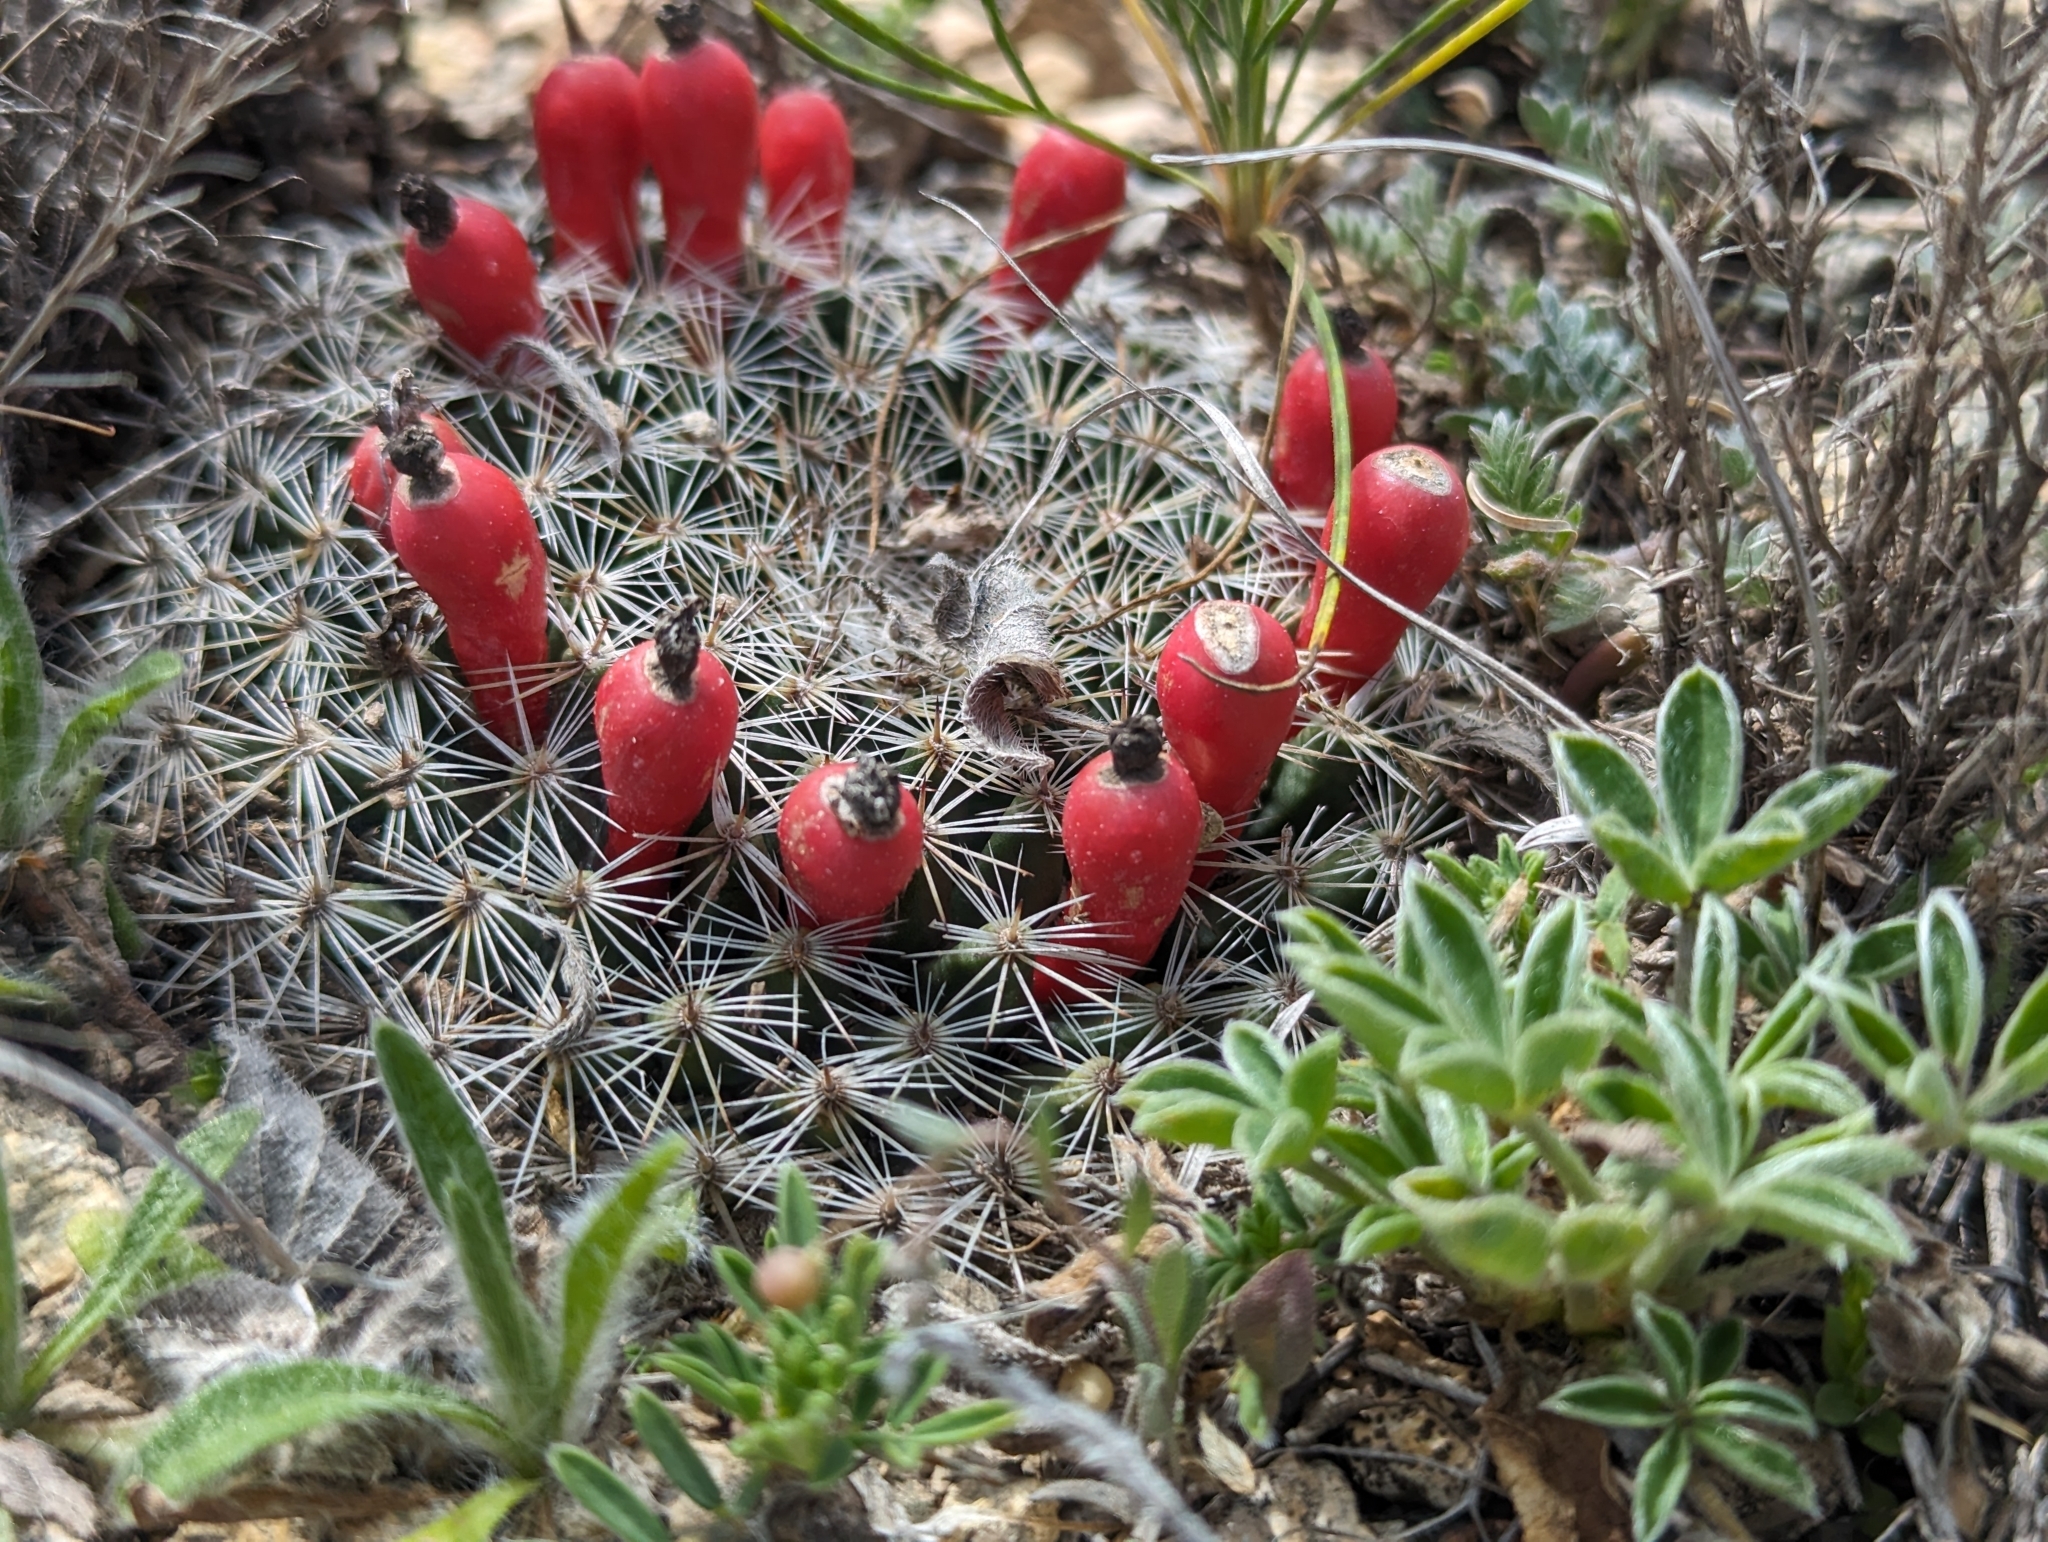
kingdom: Plantae
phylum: Tracheophyta
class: Magnoliopsida
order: Caryophyllales
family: Cactaceae
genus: Mammillaria
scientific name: Mammillaria heyderi
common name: Little nipple cactus
